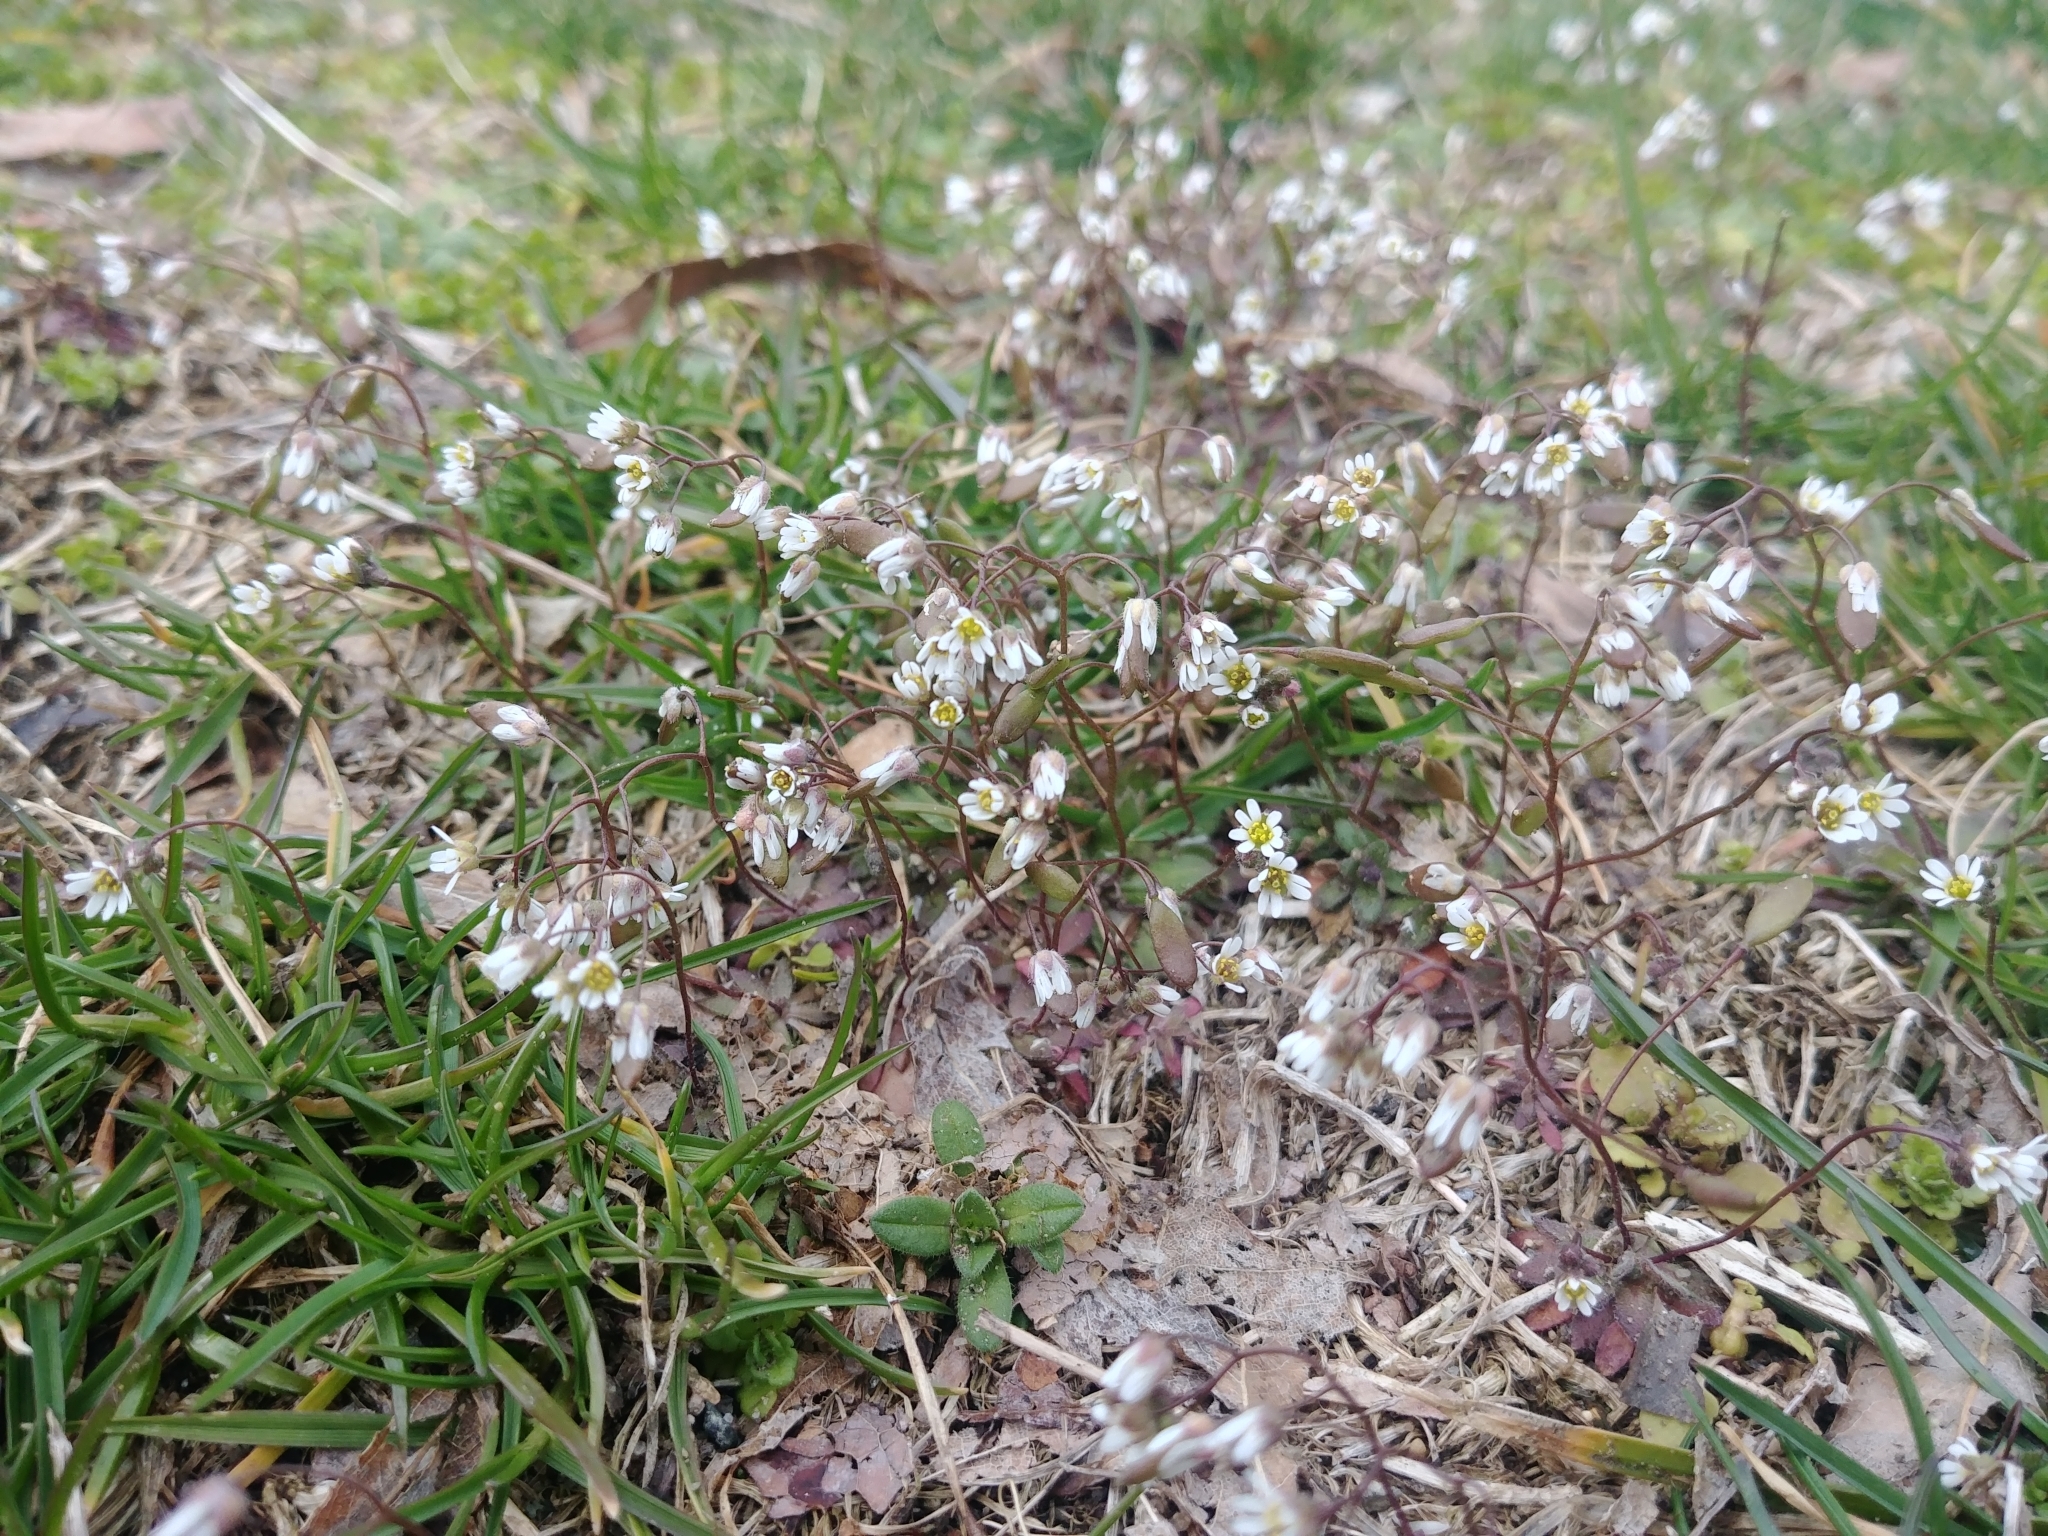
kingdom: Plantae
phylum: Tracheophyta
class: Magnoliopsida
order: Brassicales
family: Brassicaceae
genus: Draba
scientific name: Draba verna
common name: Spring draba
